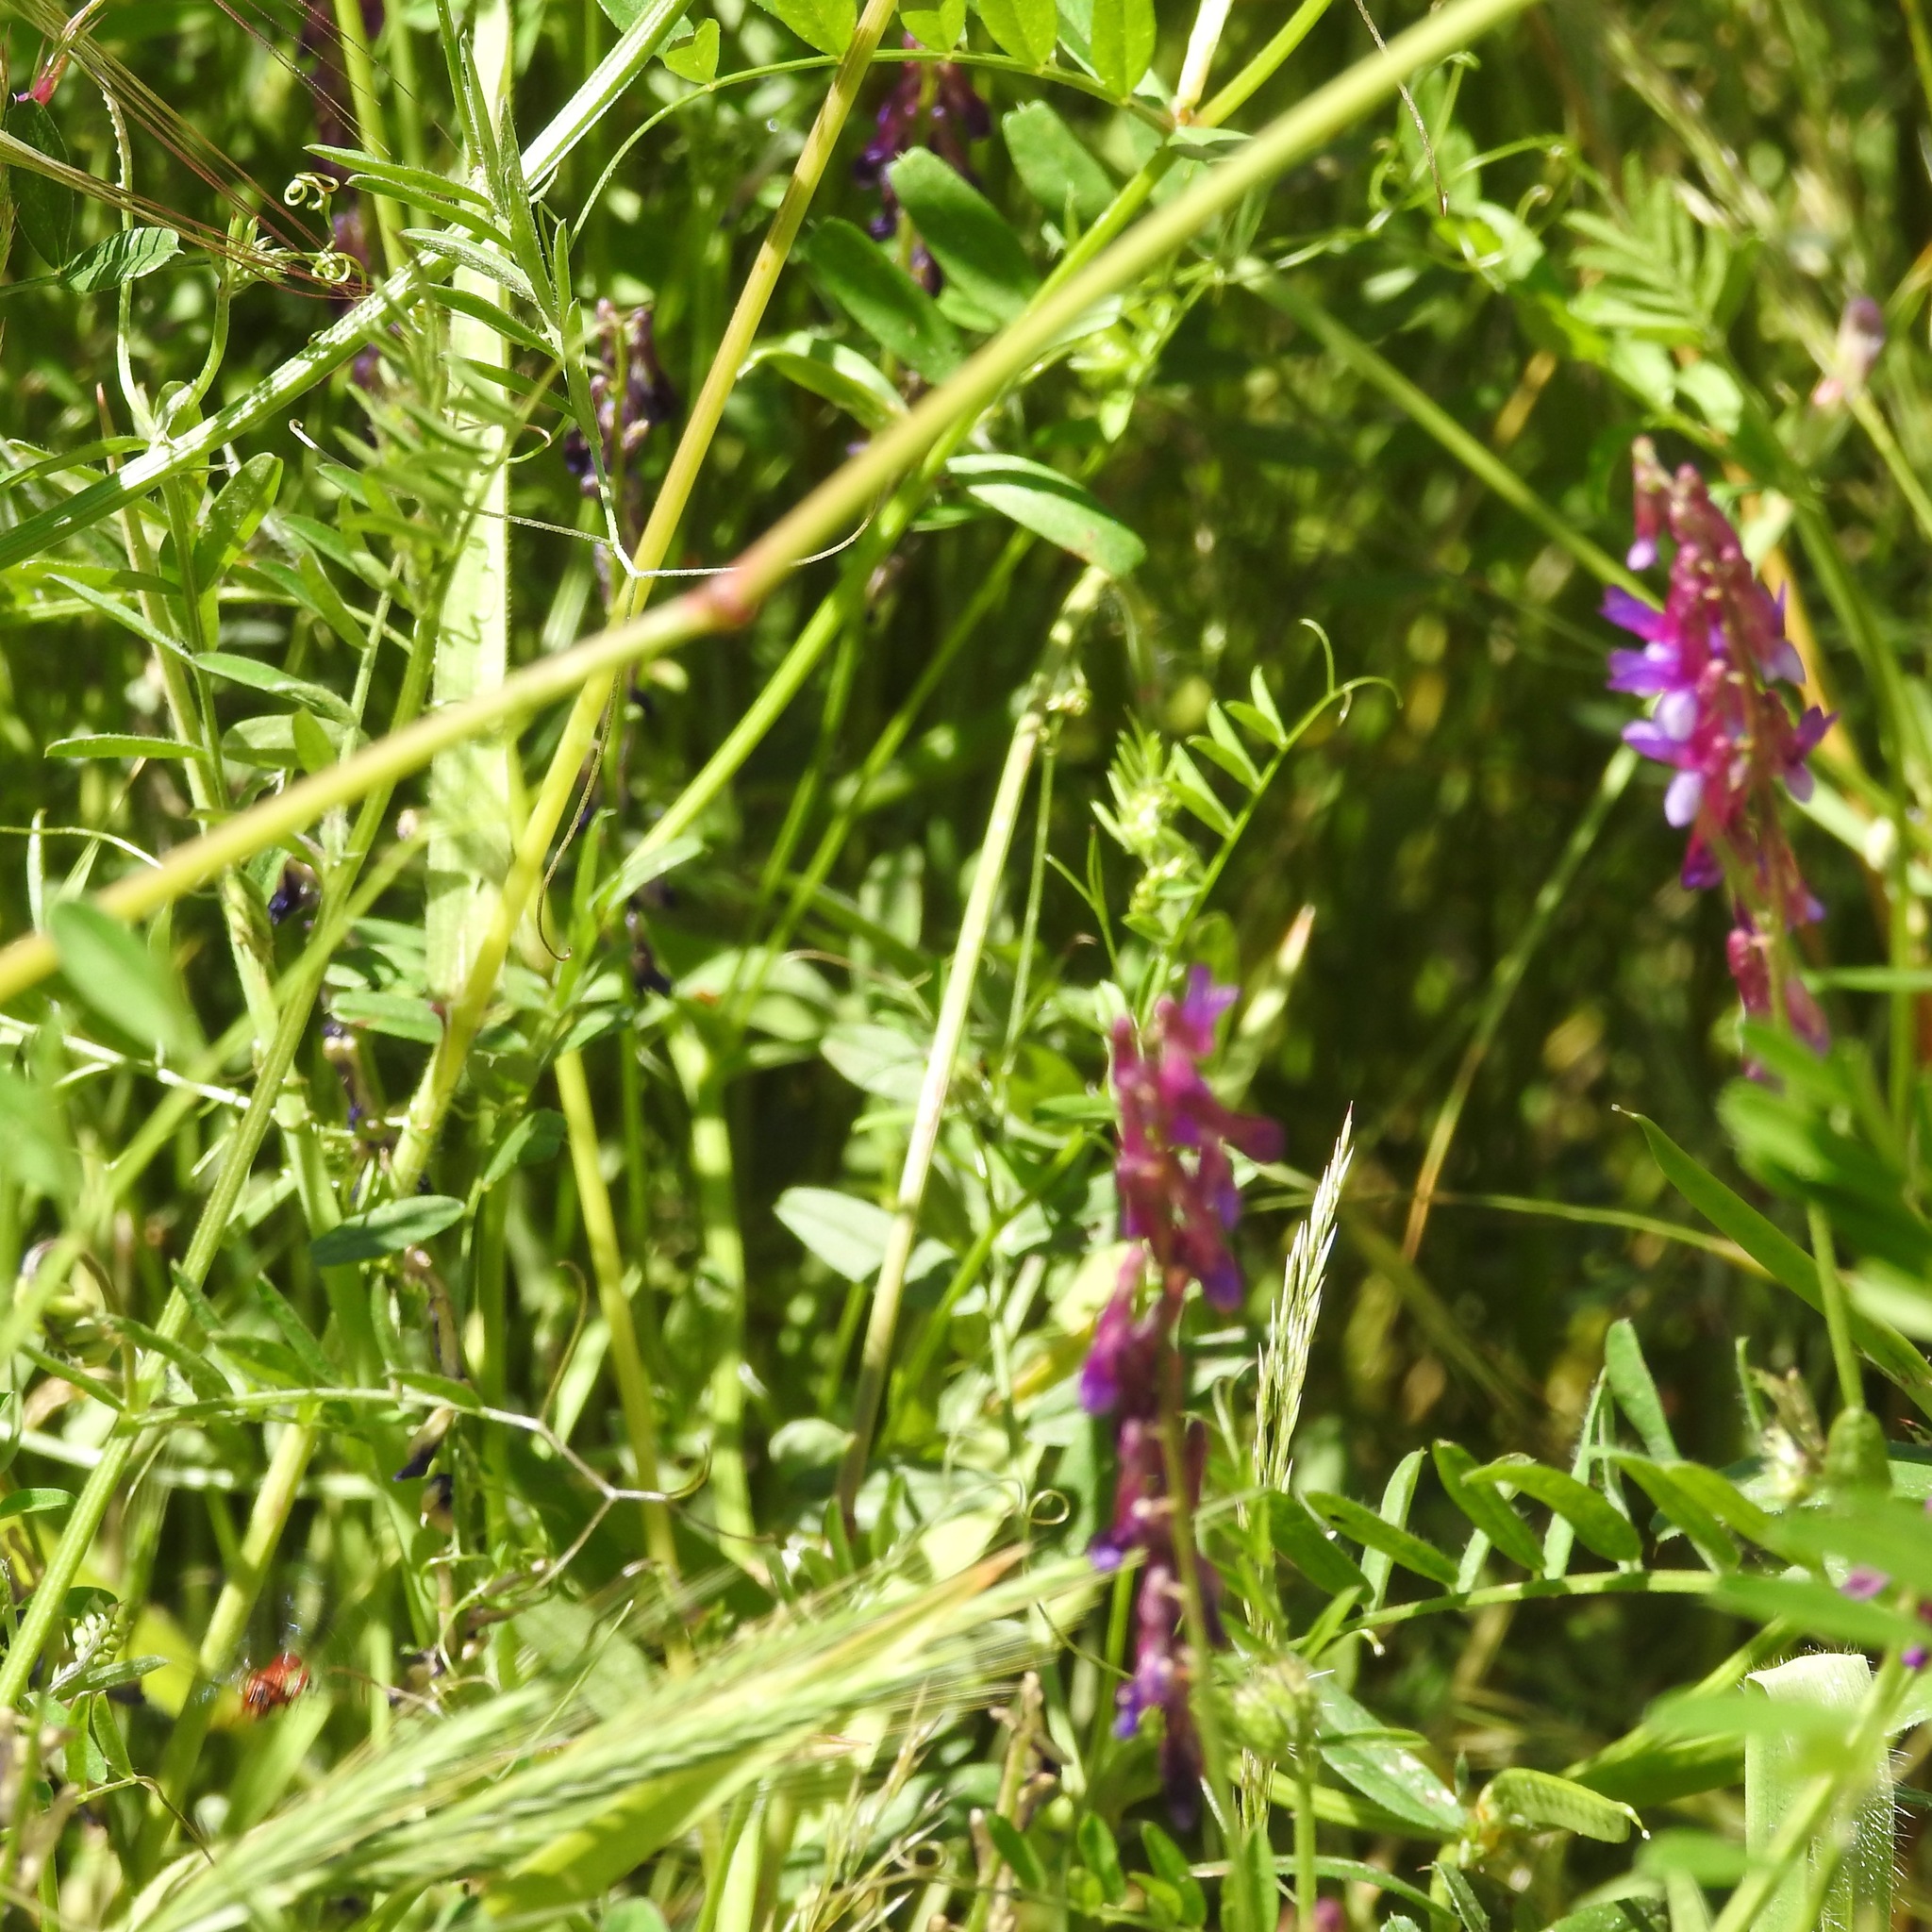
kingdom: Plantae
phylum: Tracheophyta
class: Magnoliopsida
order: Fabales
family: Fabaceae
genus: Vicia
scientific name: Vicia villosa
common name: Fodder vetch
